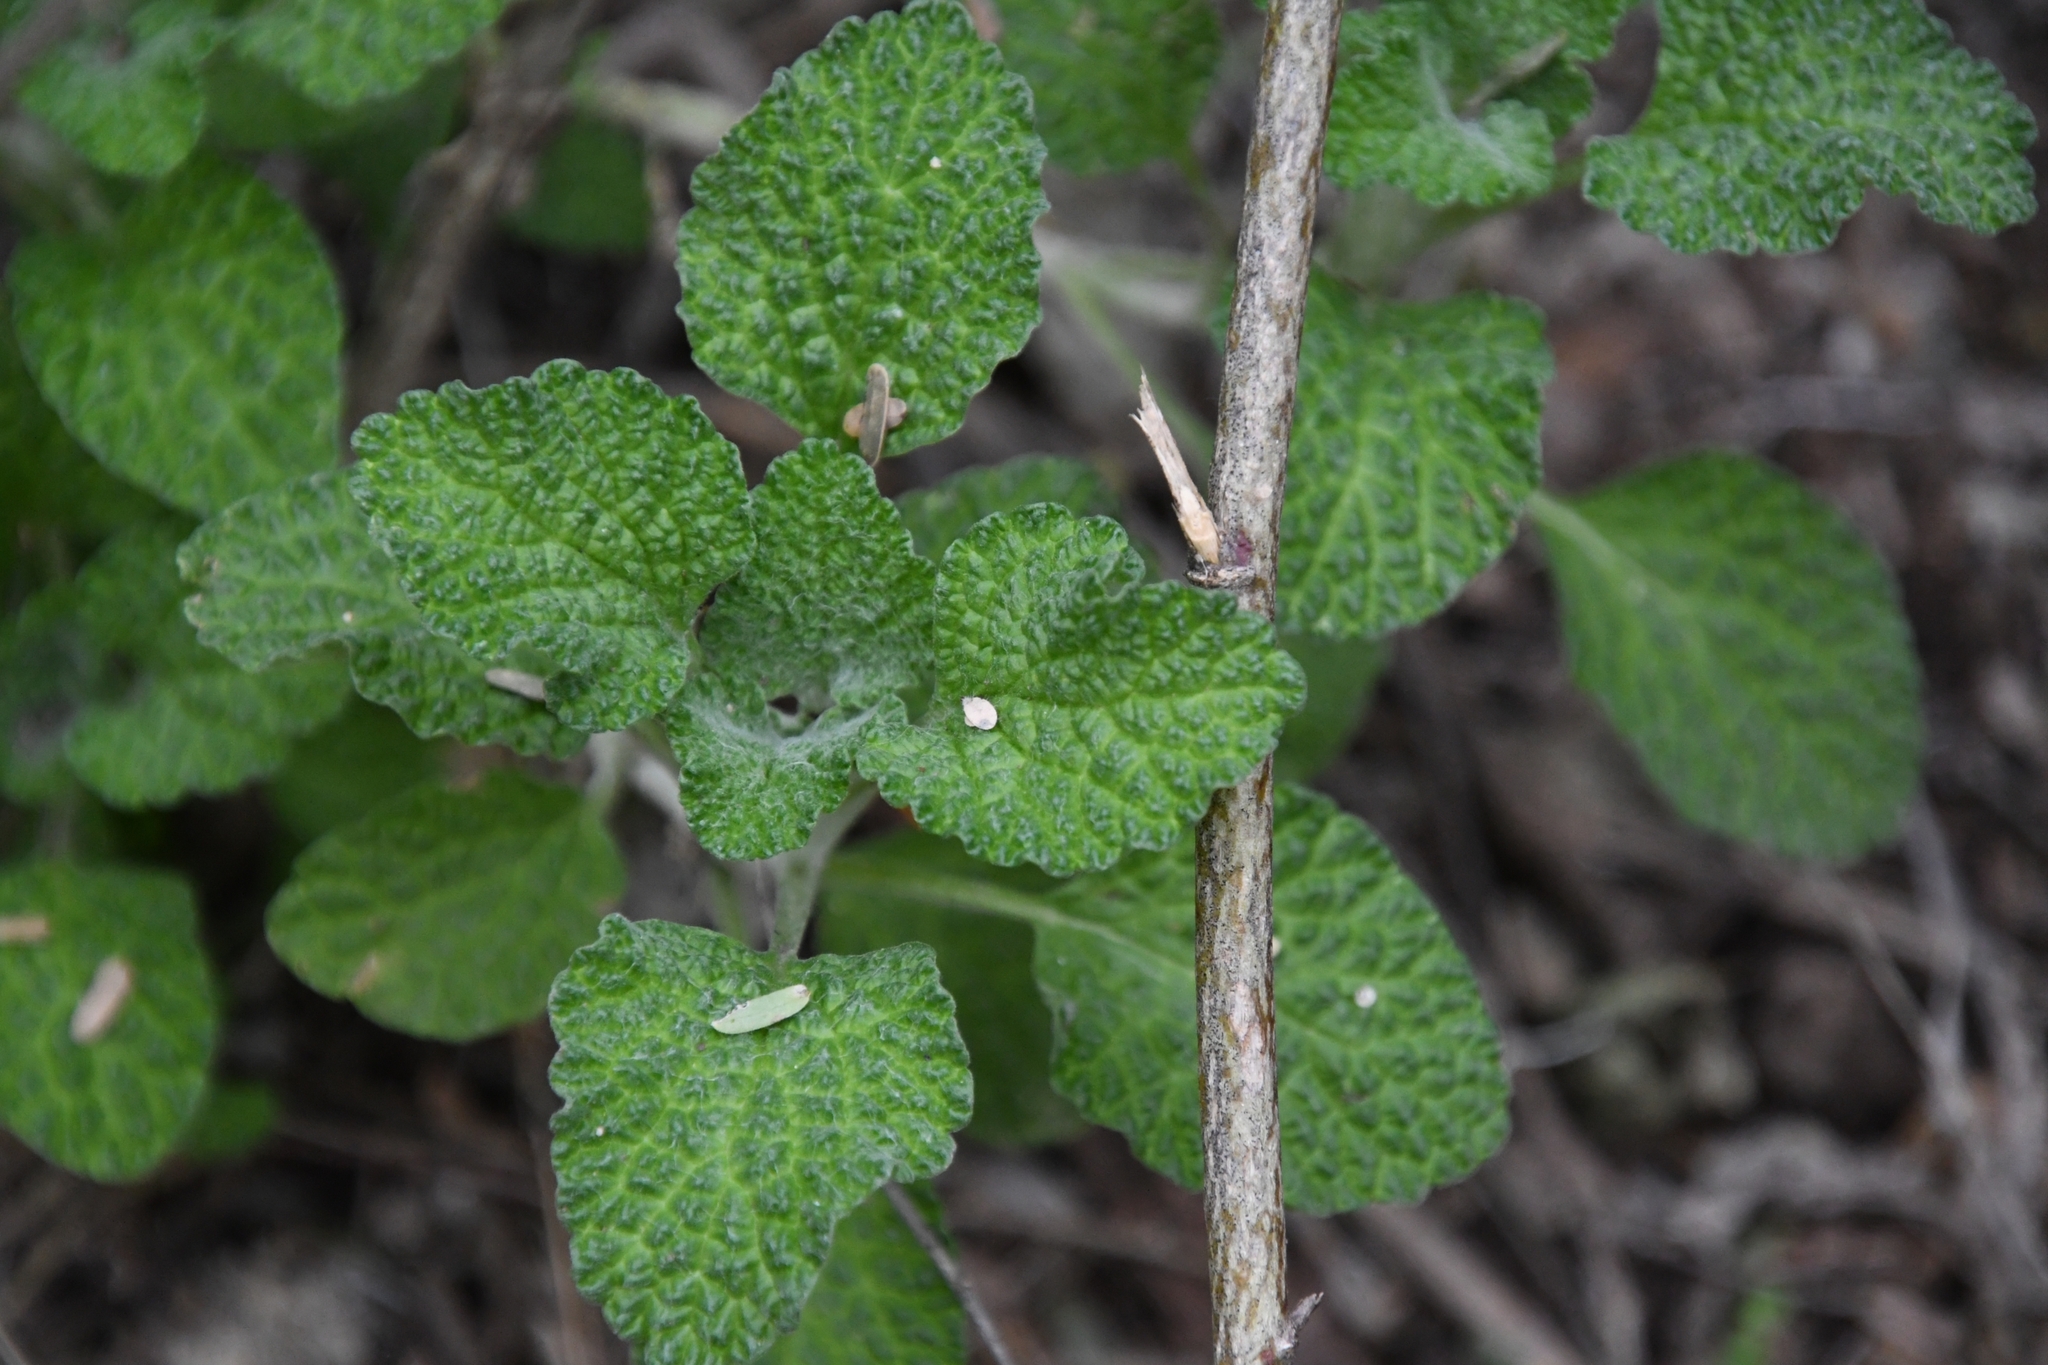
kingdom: Plantae
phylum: Tracheophyta
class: Magnoliopsida
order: Lamiales
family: Lamiaceae
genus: Marrubium
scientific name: Marrubium vulgare
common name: Horehound
